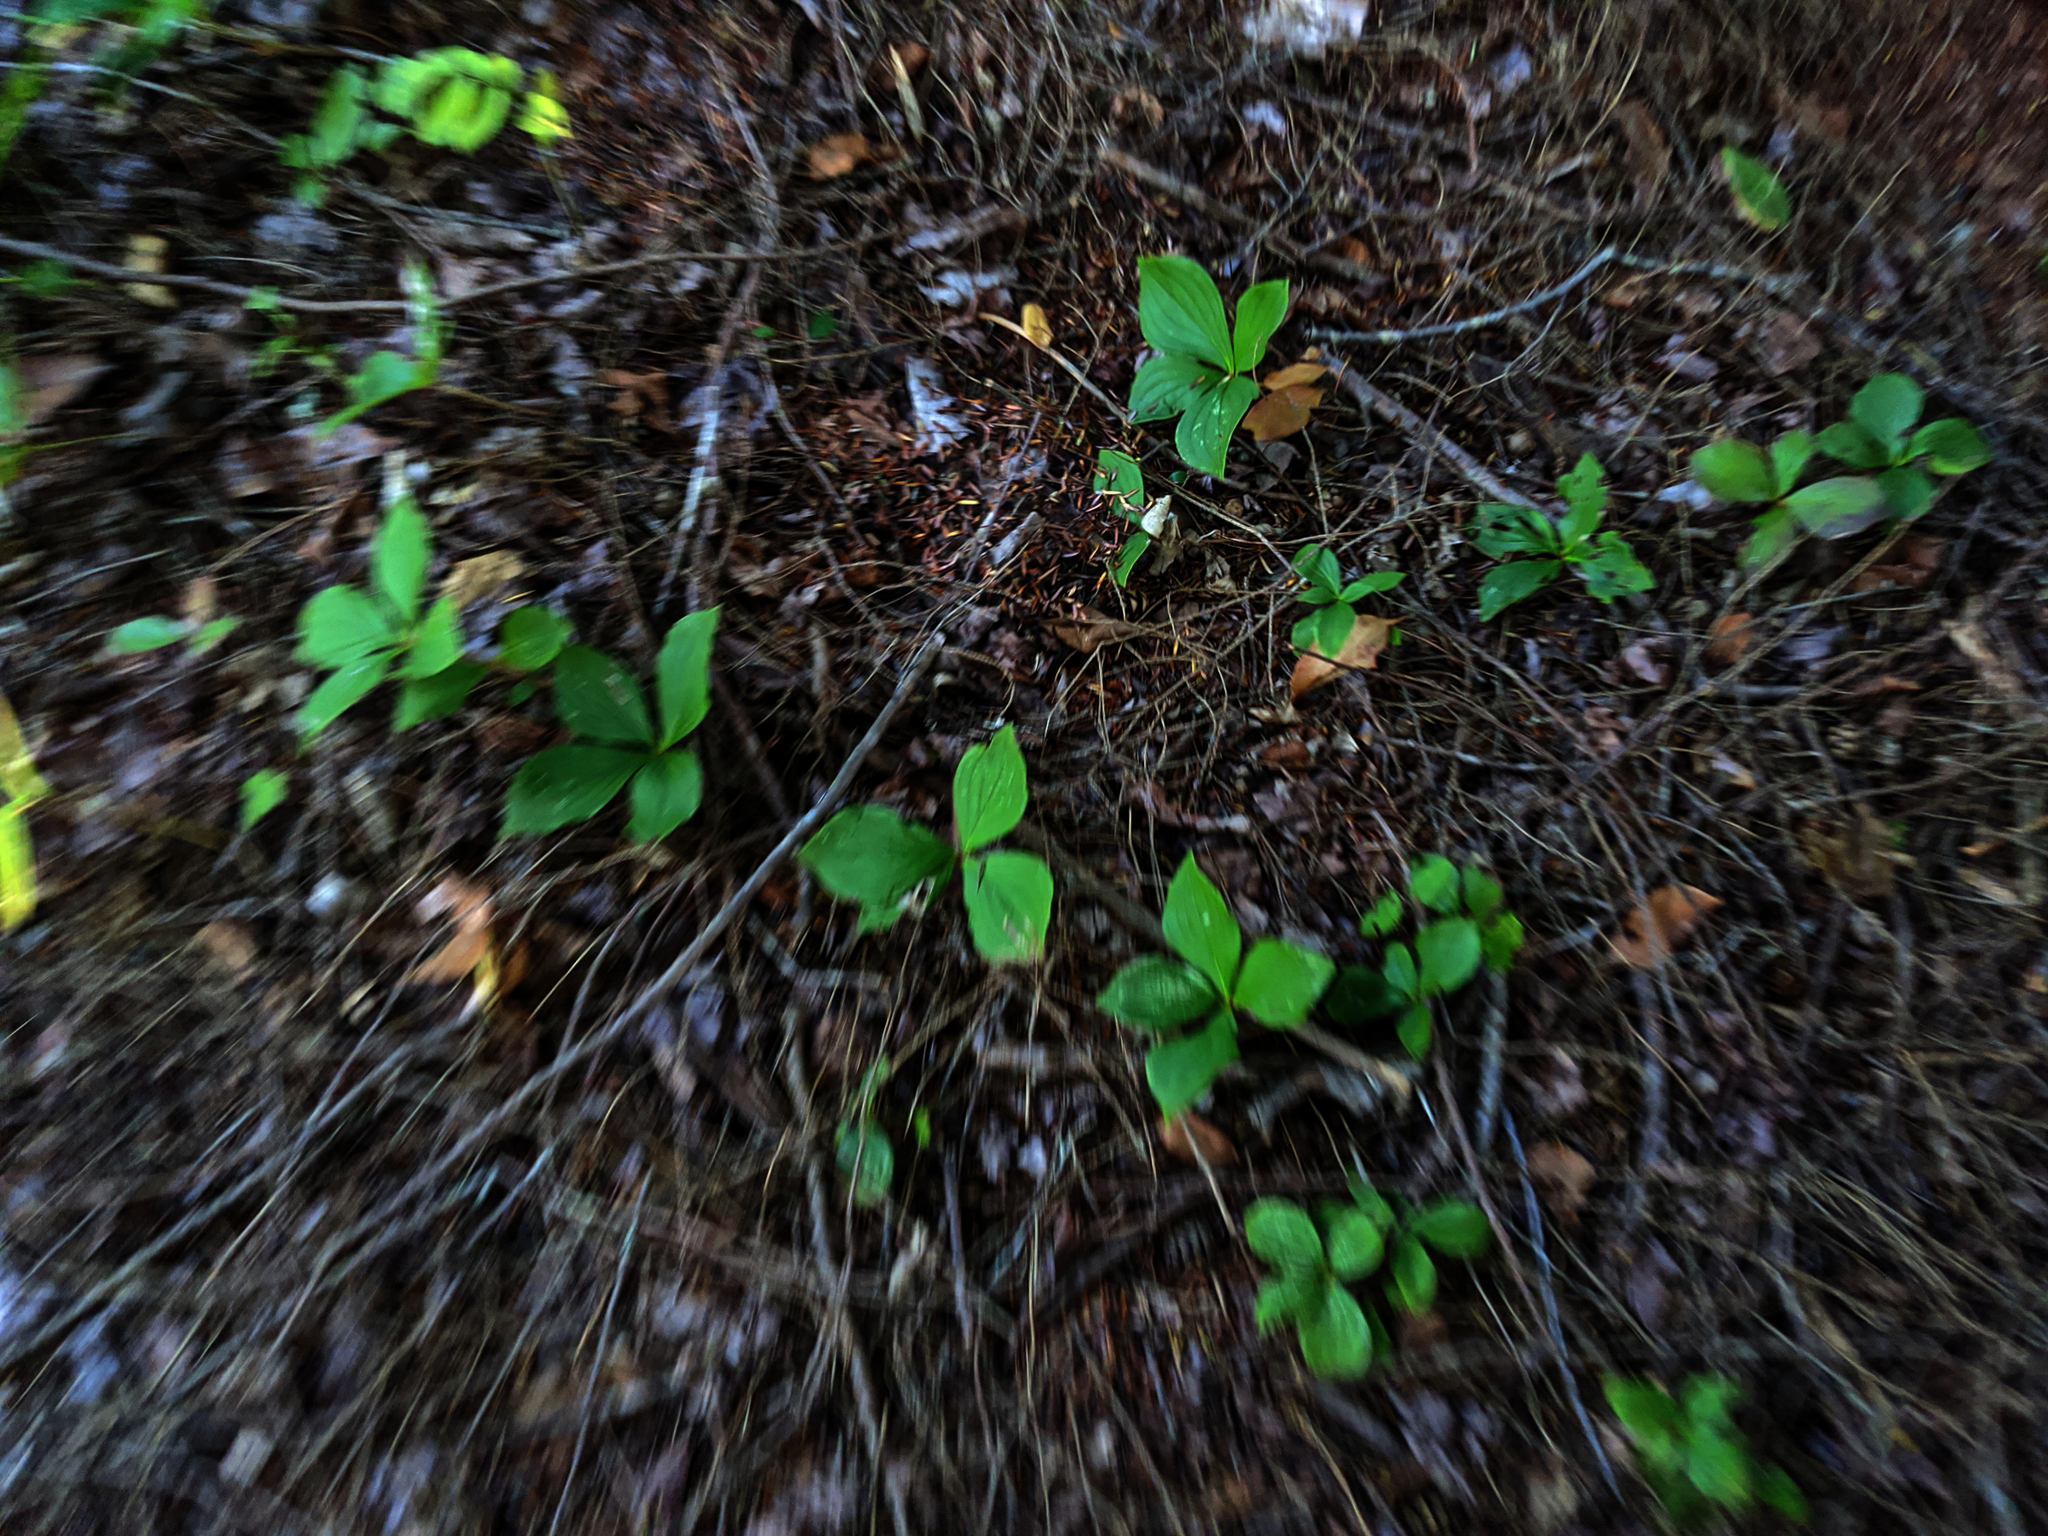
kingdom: Plantae
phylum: Tracheophyta
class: Magnoliopsida
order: Cornales
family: Cornaceae
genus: Cornus
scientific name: Cornus canadensis
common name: Creeping dogwood
